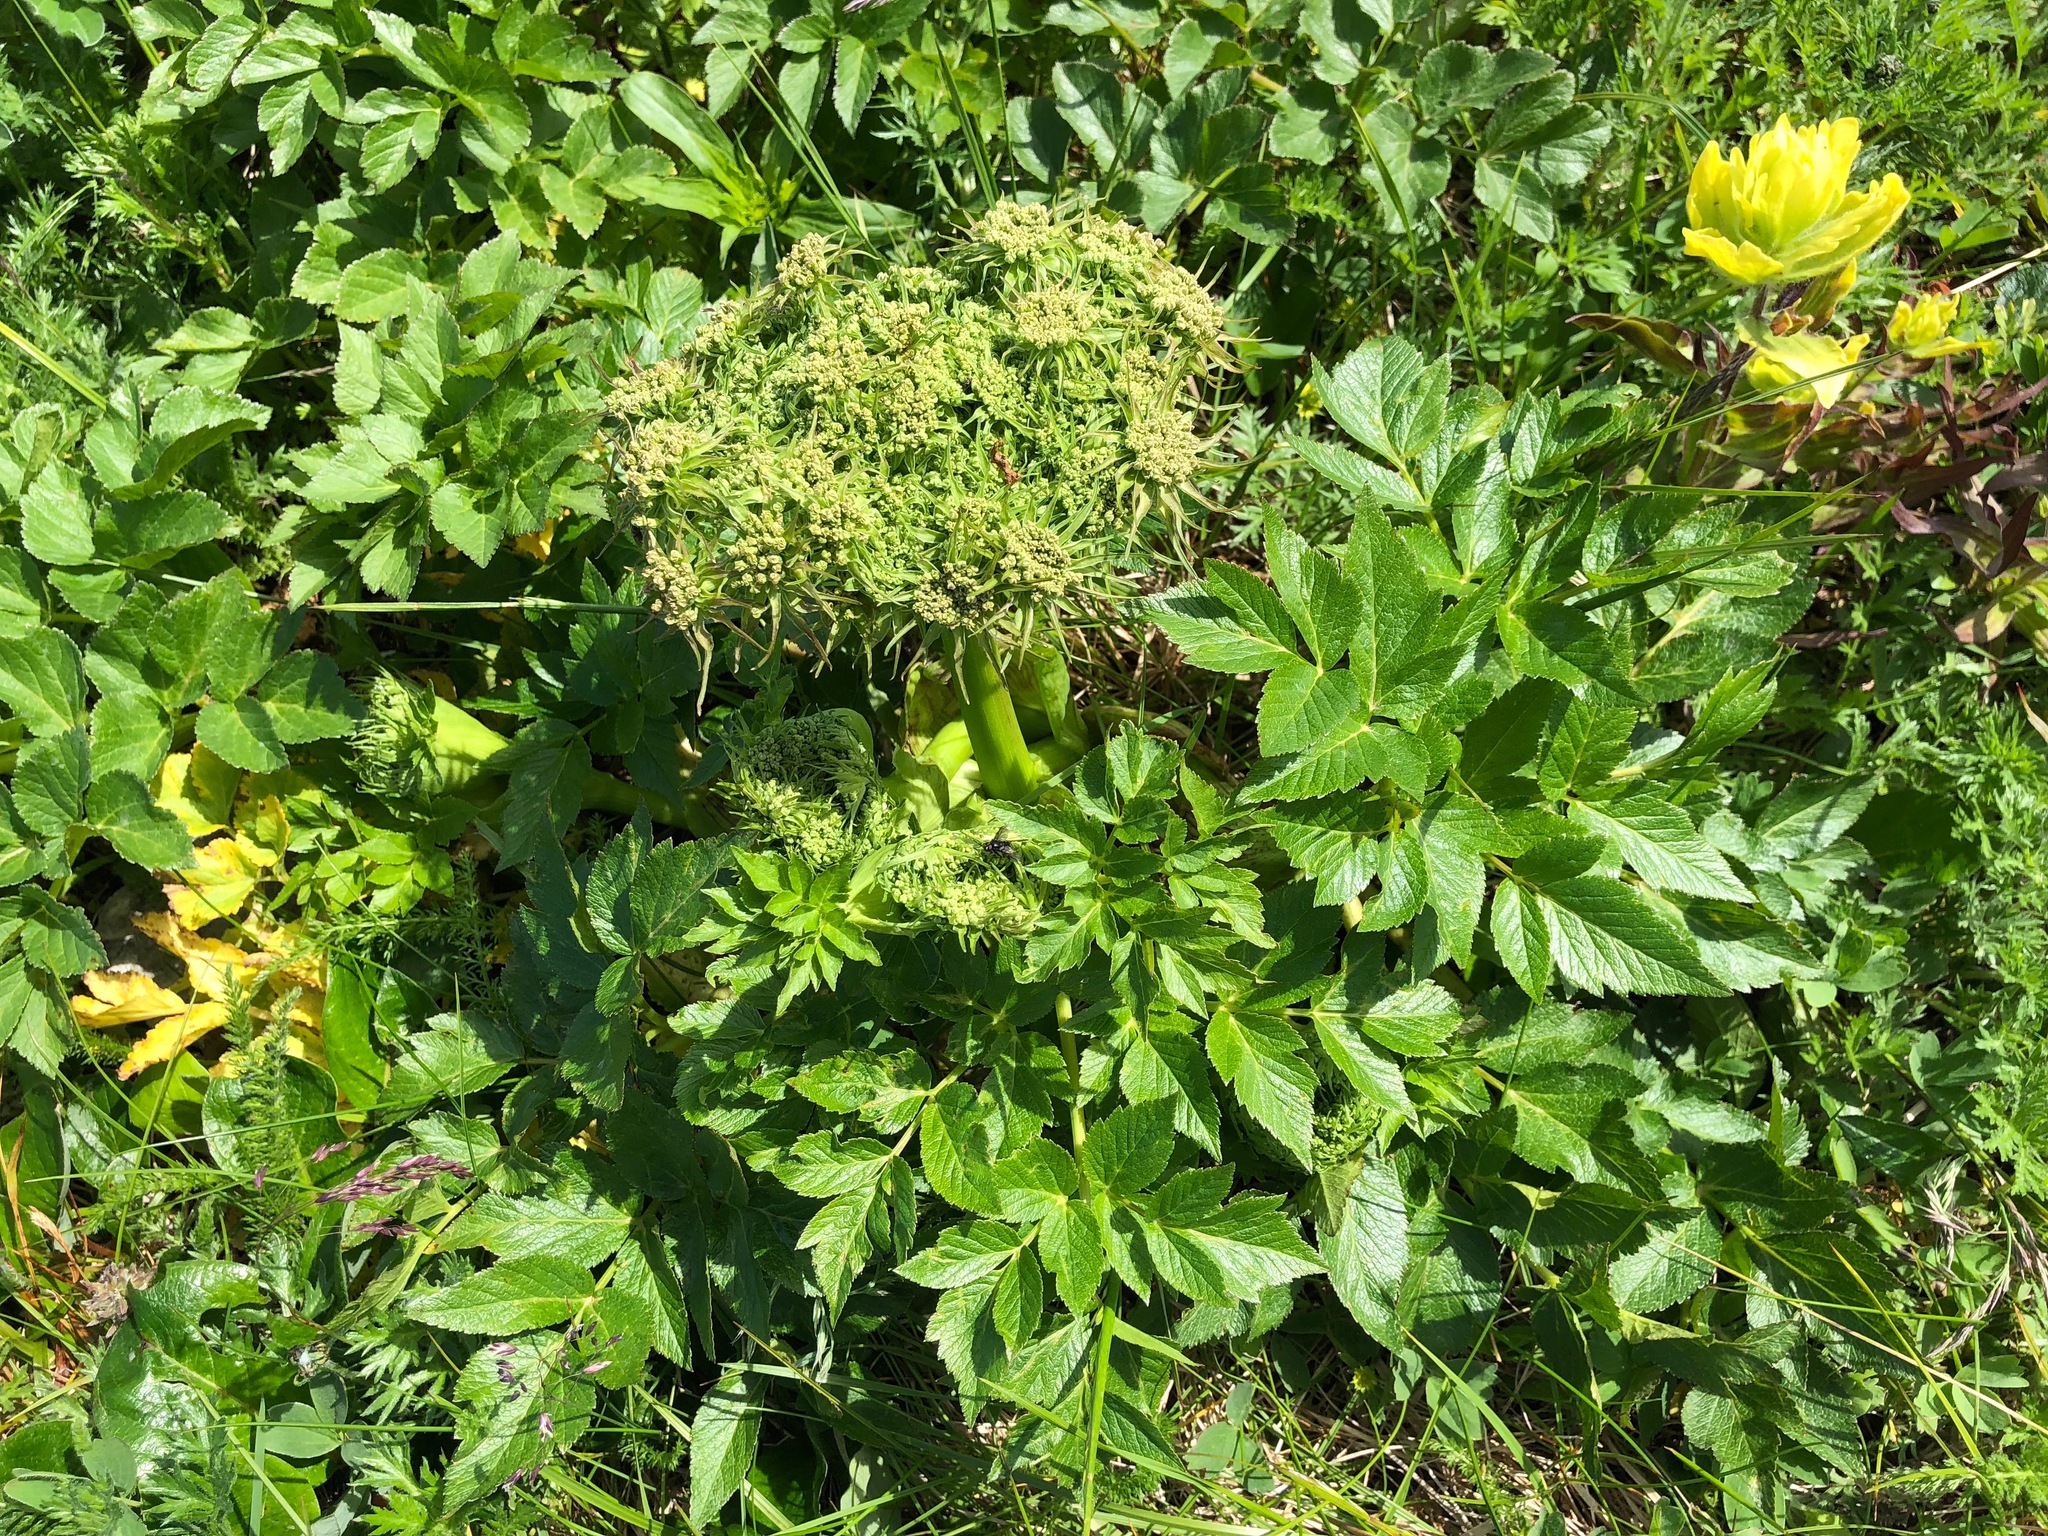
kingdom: Plantae
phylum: Tracheophyta
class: Magnoliopsida
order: Apiales
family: Apiaceae
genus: Angelica
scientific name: Angelica lucida
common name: Seabeach angelica
